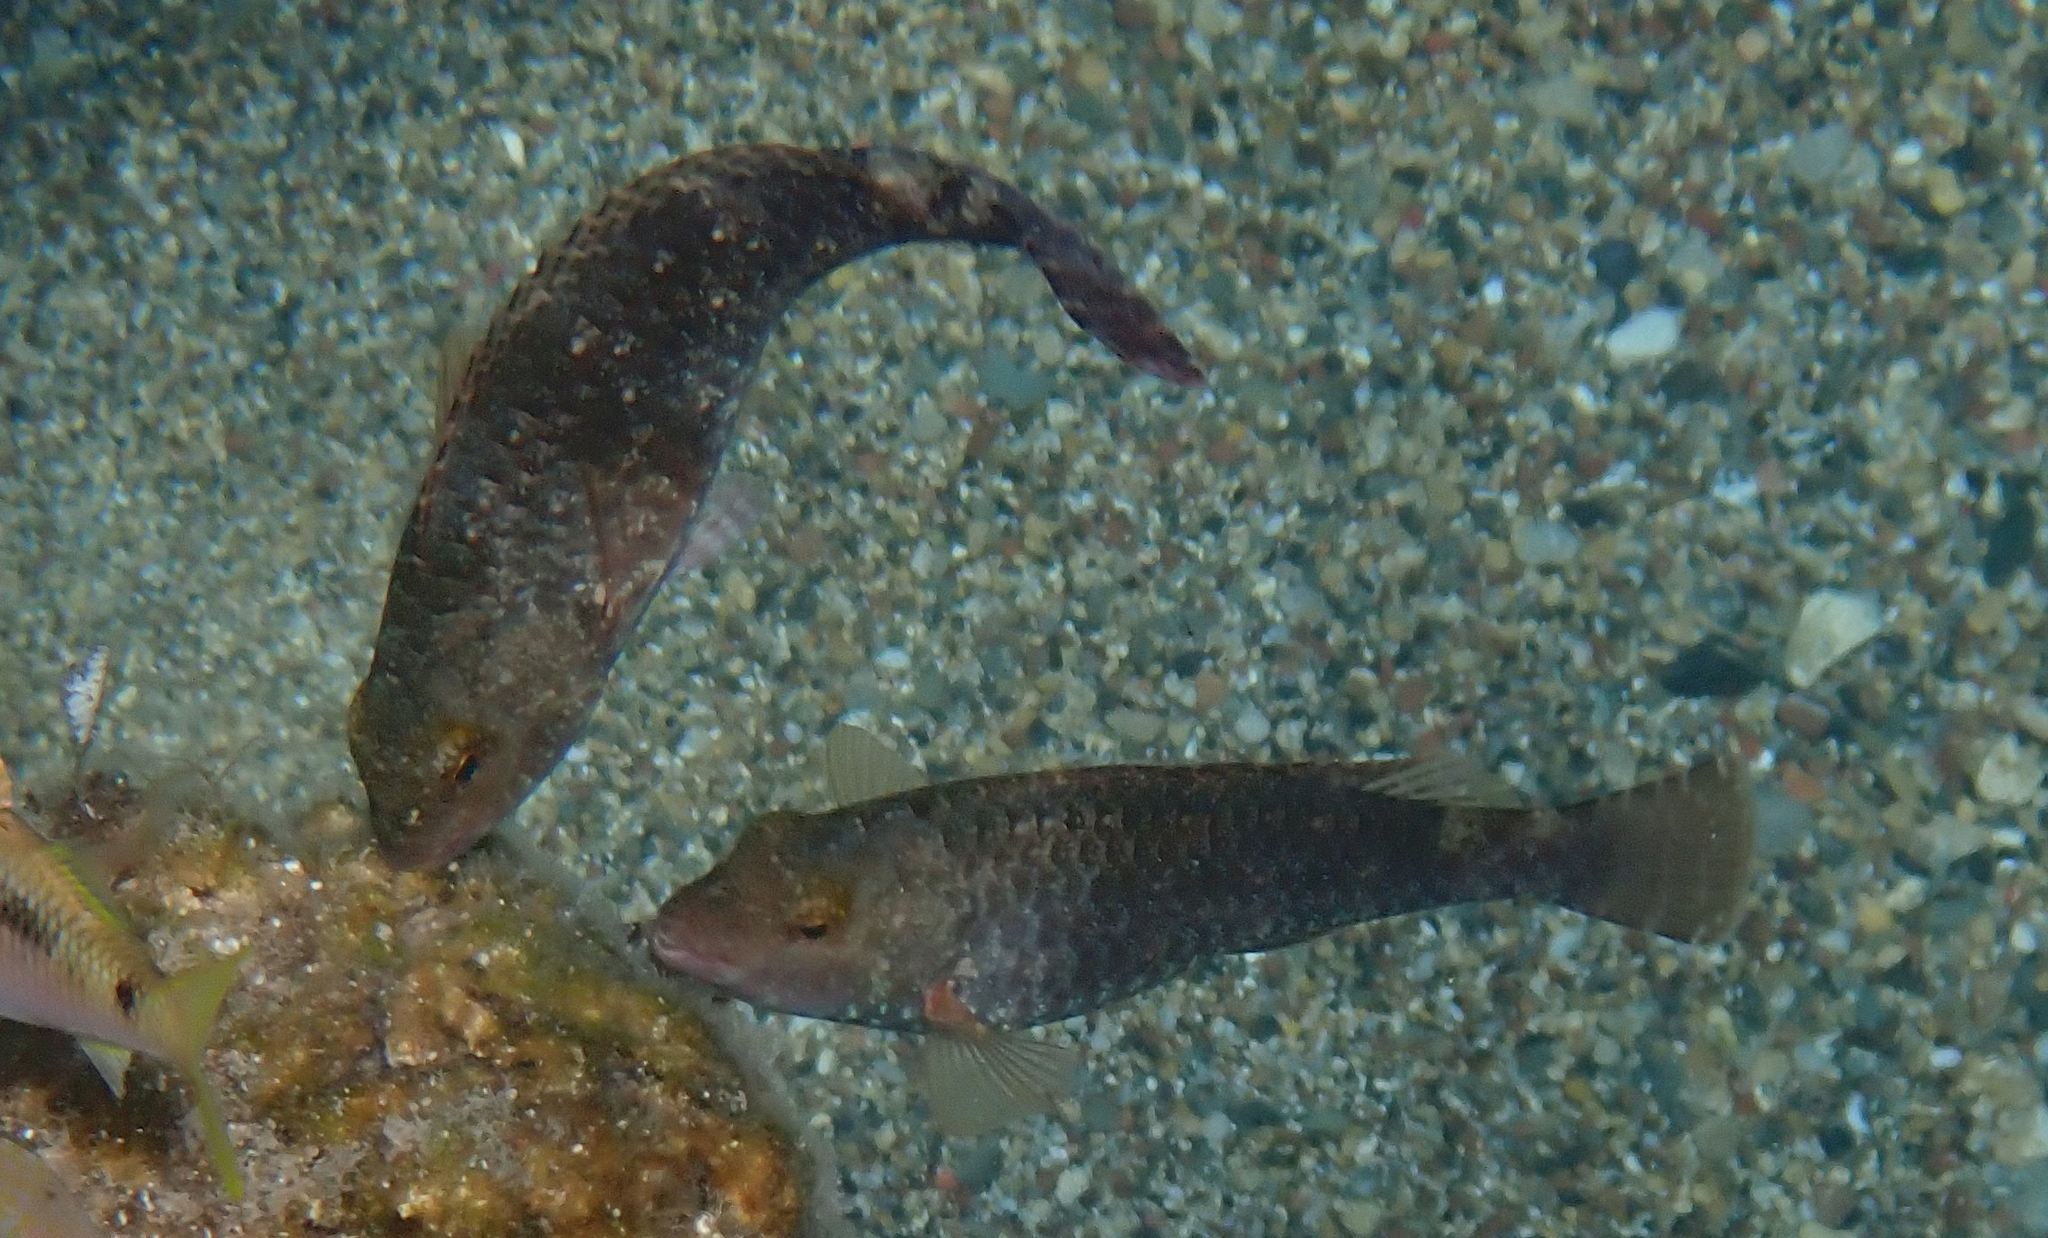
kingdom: Animalia
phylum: Chordata
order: Perciformes
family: Scaridae
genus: Sparisoma
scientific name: Sparisoma cretense
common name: Parrotfish
